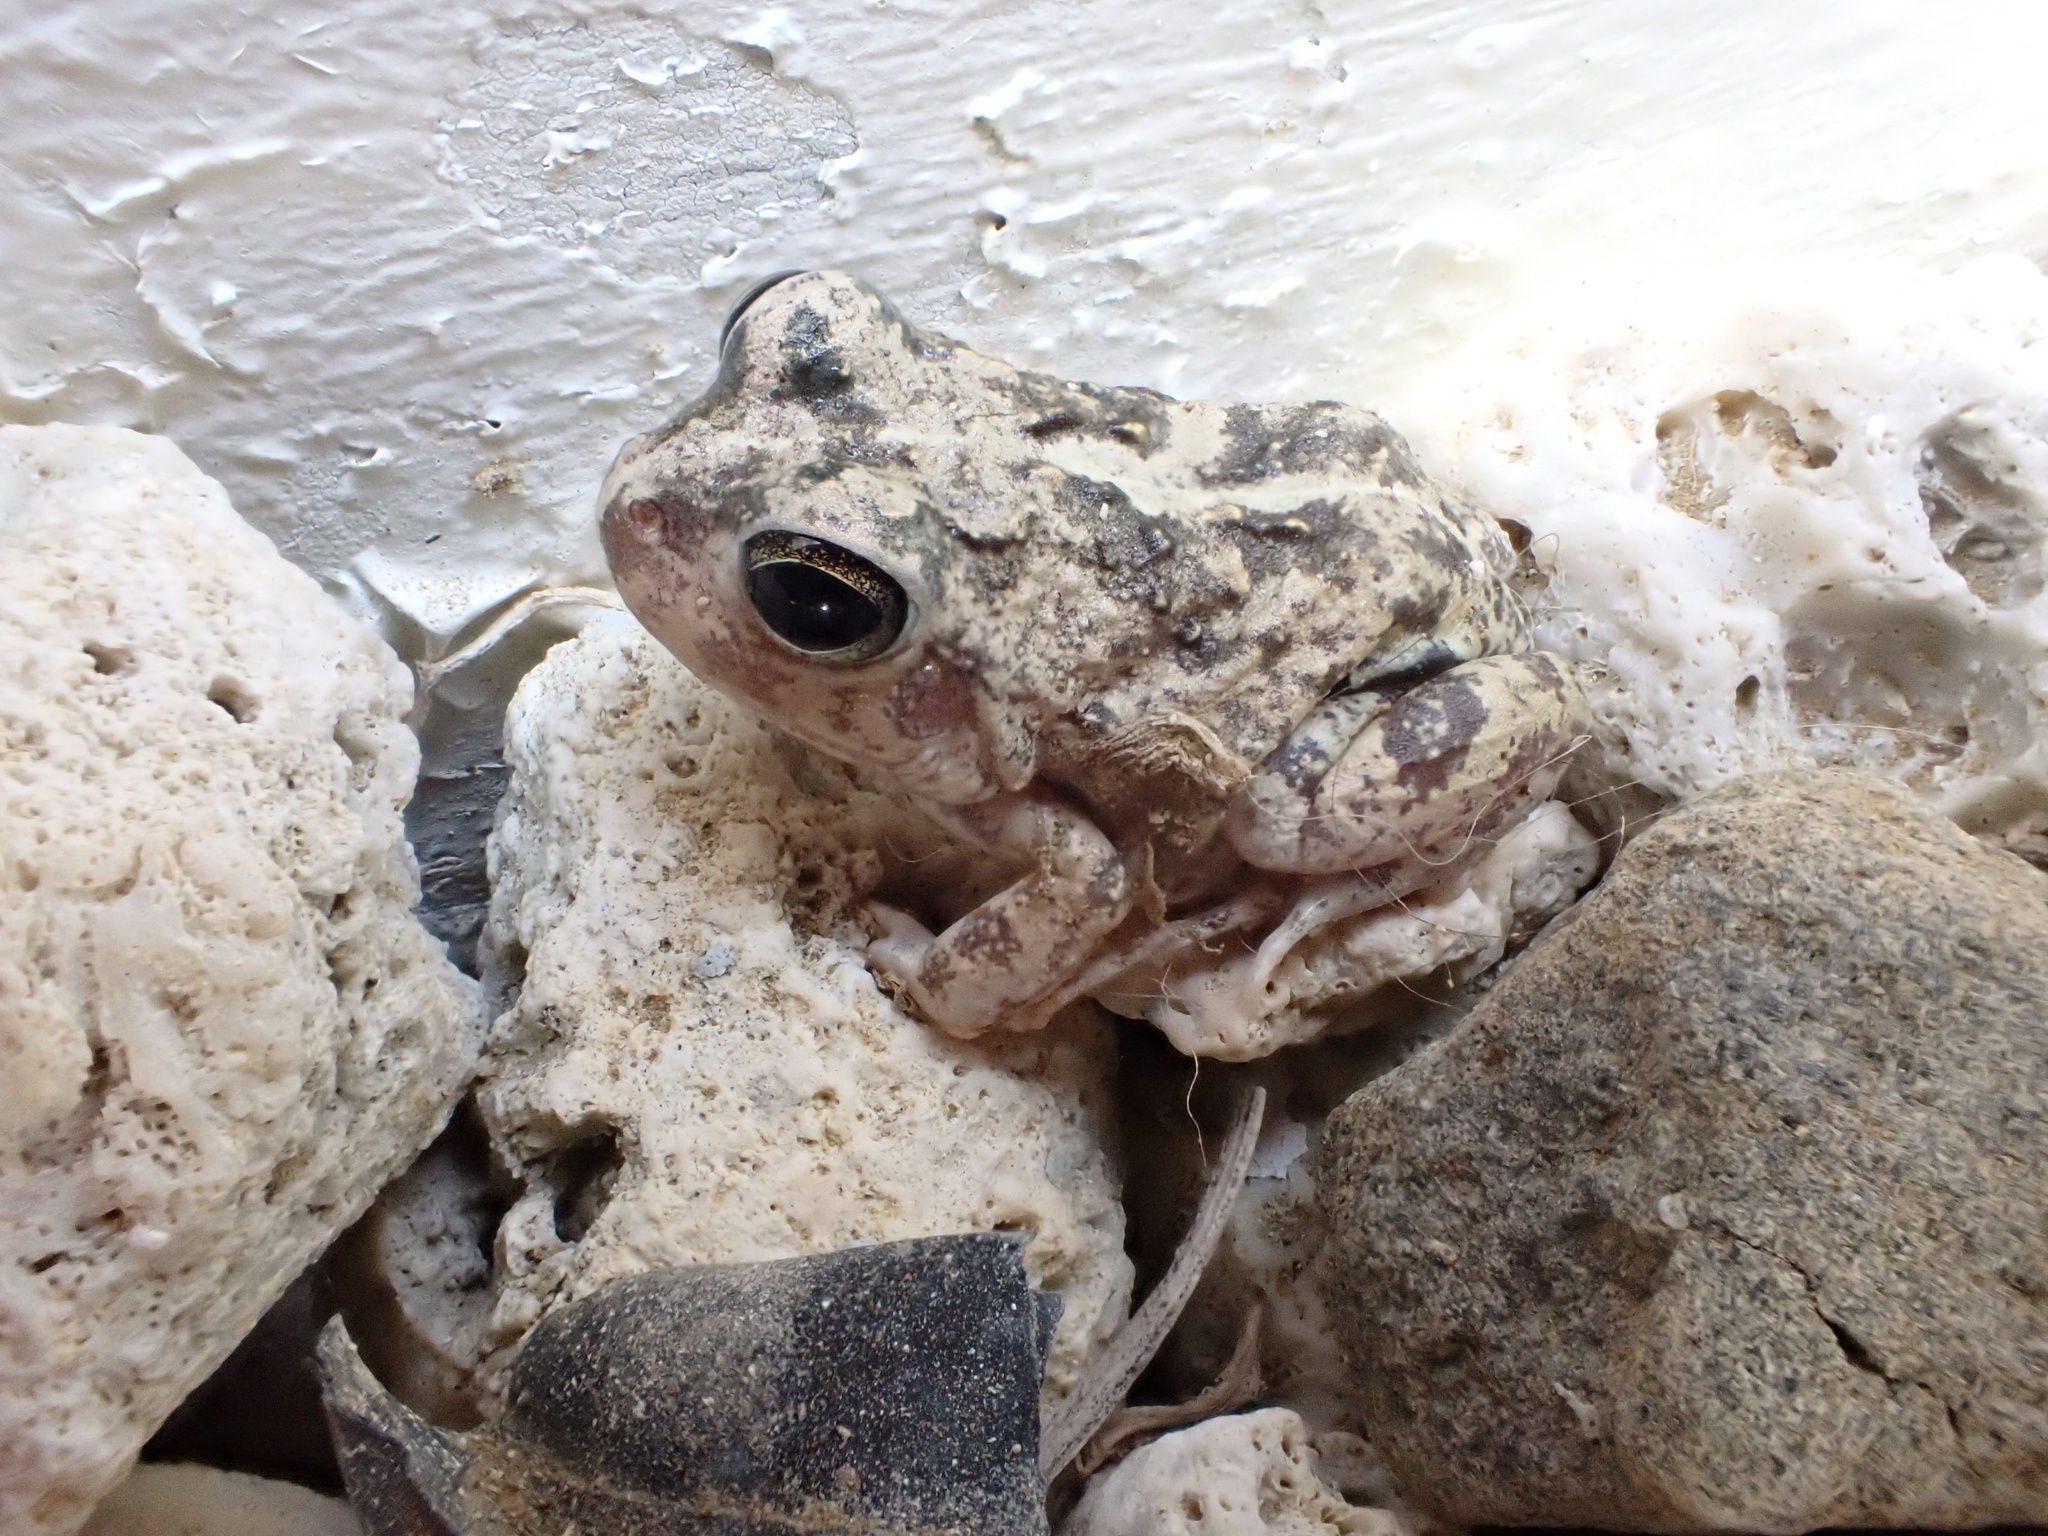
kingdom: Animalia
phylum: Chordata
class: Amphibia
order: Anura
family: Leptodactylidae
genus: Pleurodema
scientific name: Pleurodema brachyops
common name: Colombian four-eyed frog
